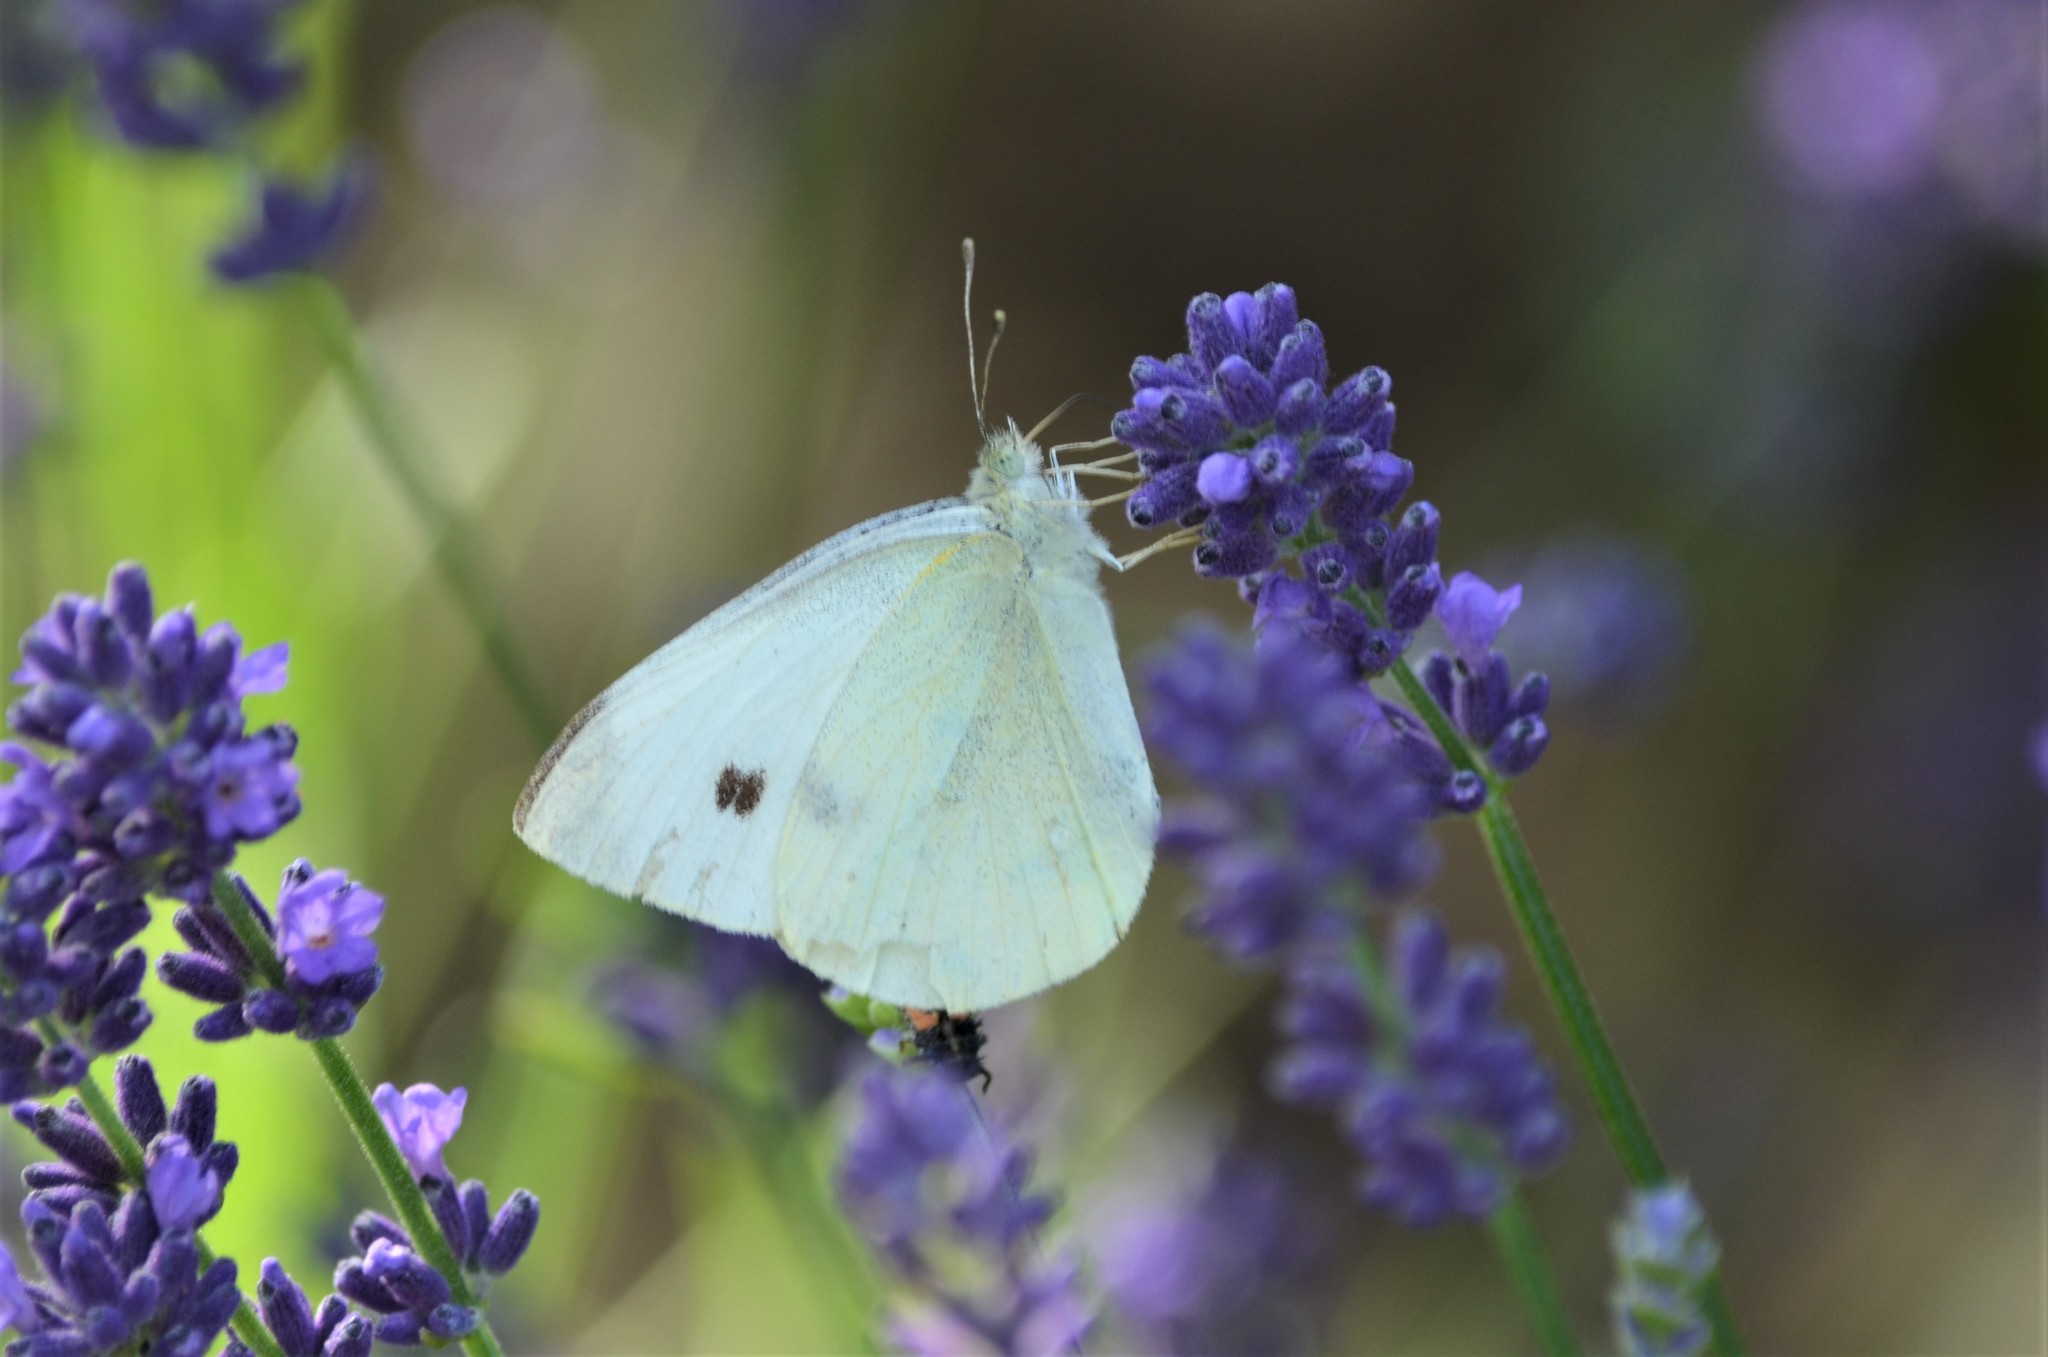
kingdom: Animalia
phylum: Arthropoda
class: Insecta
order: Lepidoptera
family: Pieridae
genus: Pieris
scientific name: Pieris rapae
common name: Small white
